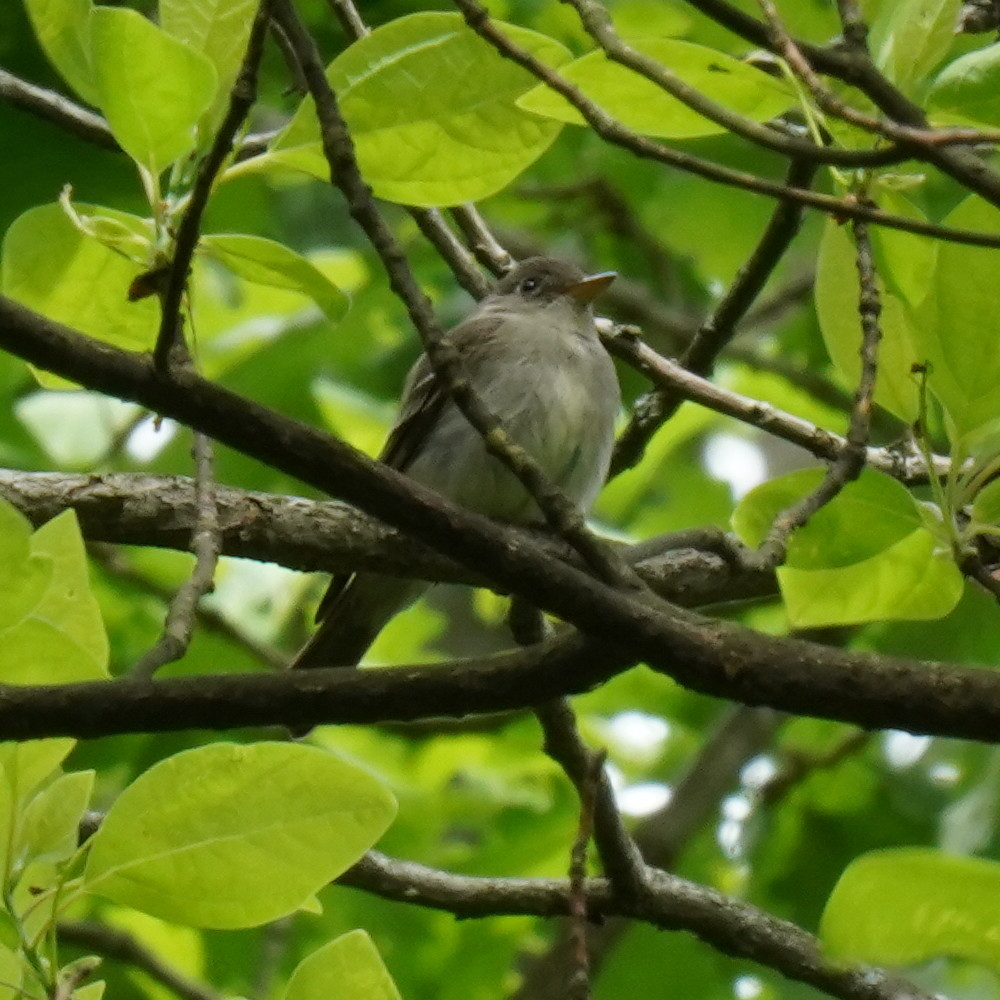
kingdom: Animalia
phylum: Chordata
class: Aves
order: Passeriformes
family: Tyrannidae
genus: Contopus
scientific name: Contopus virens
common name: Eastern wood-pewee
